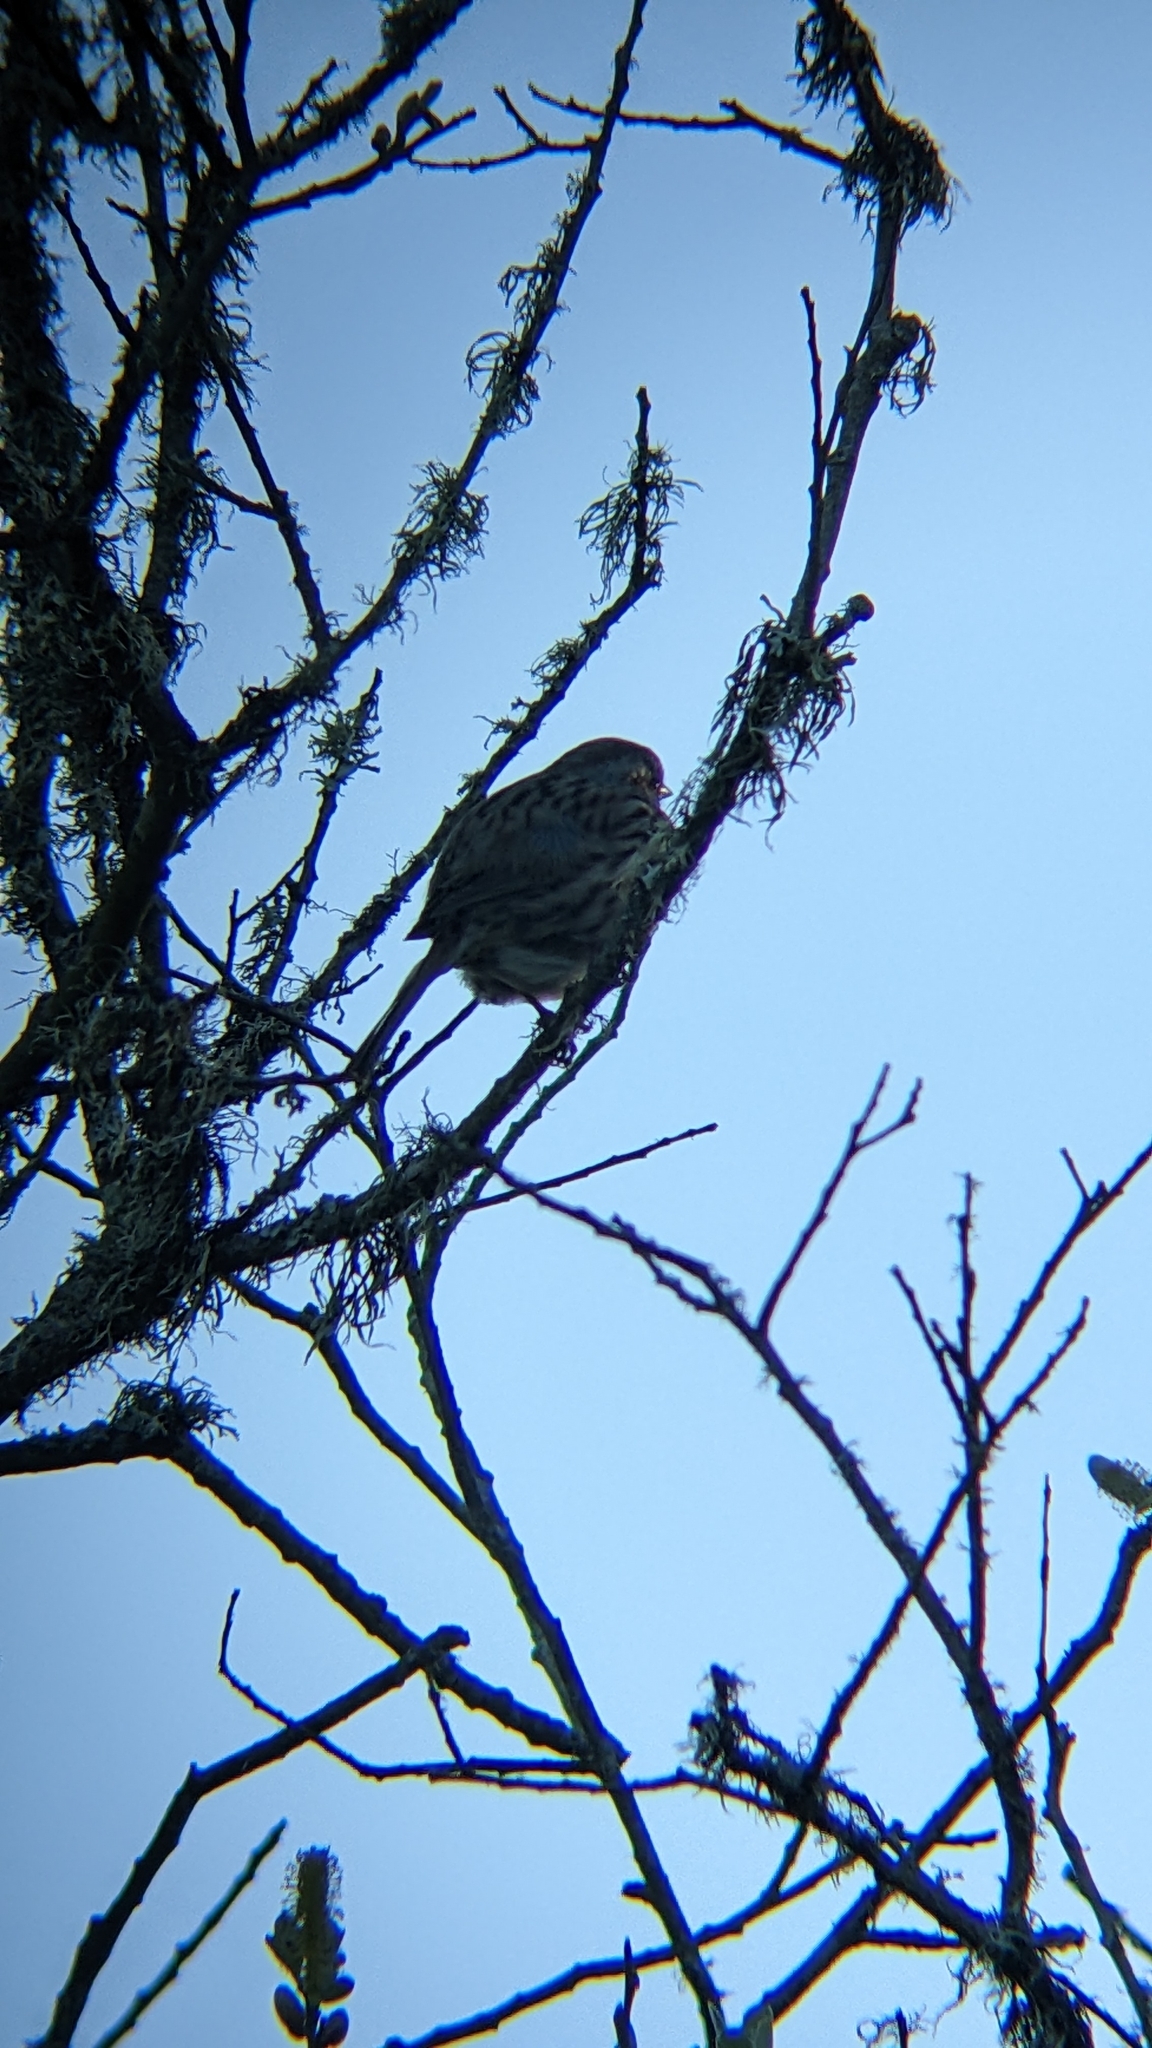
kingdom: Animalia
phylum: Chordata
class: Aves
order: Passeriformes
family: Passerellidae
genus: Melospiza
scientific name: Melospiza melodia
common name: Song sparrow
